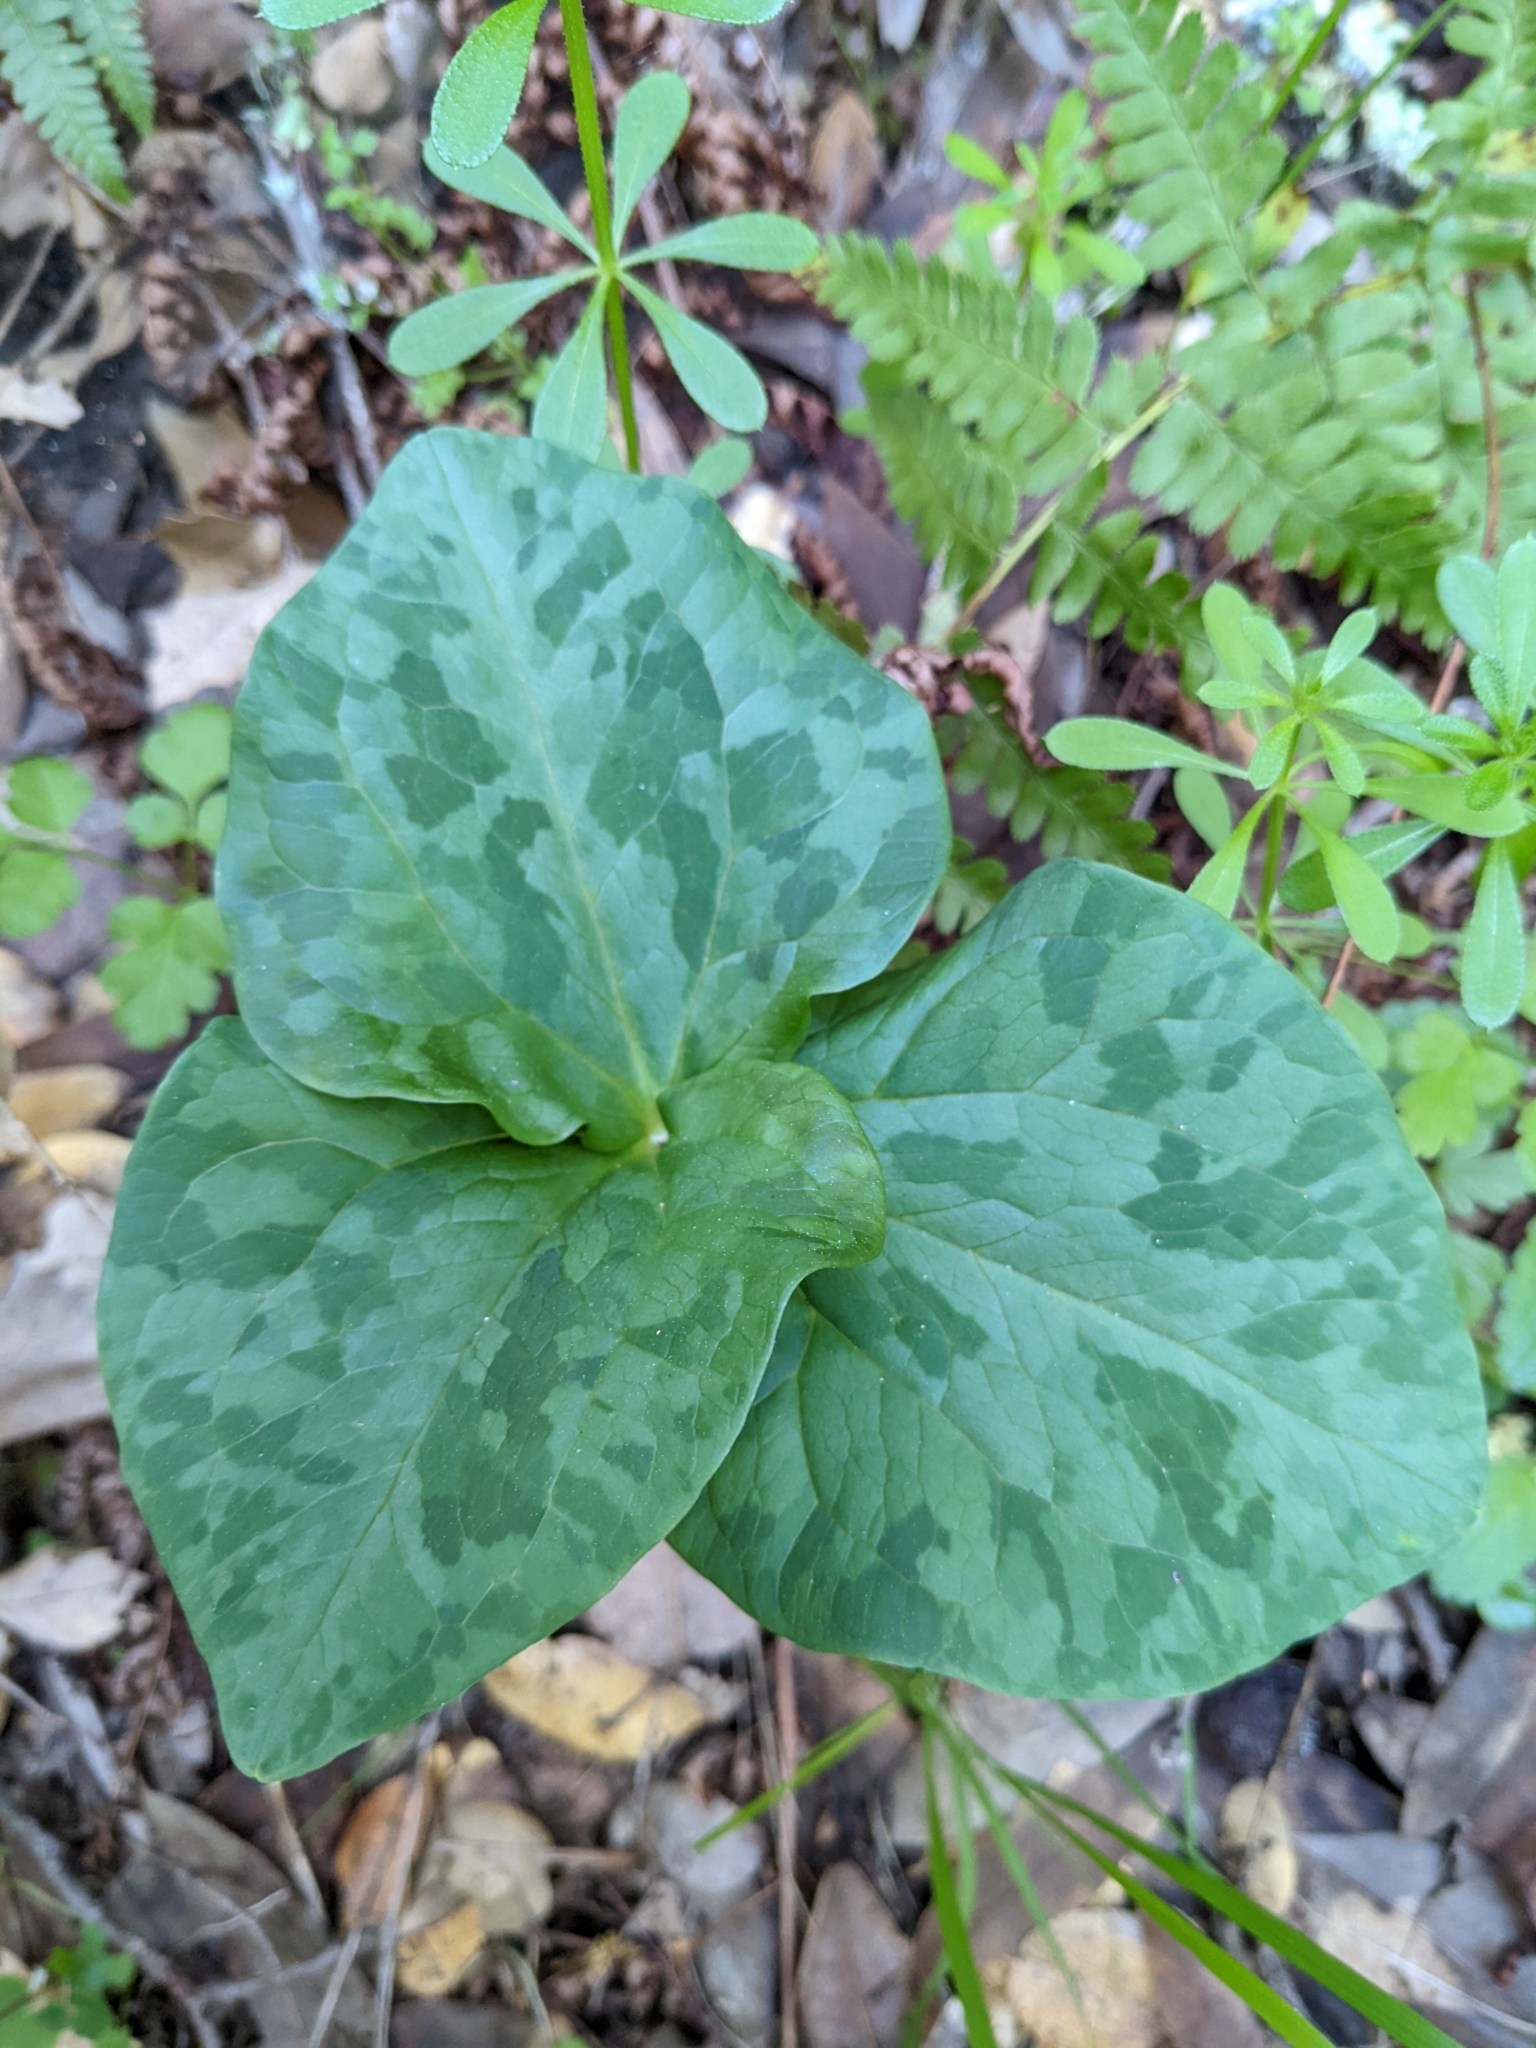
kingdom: Plantae
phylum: Tracheophyta
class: Liliopsida
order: Liliales
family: Melanthiaceae
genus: Trillium
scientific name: Trillium chloropetalum
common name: Giant trillium
